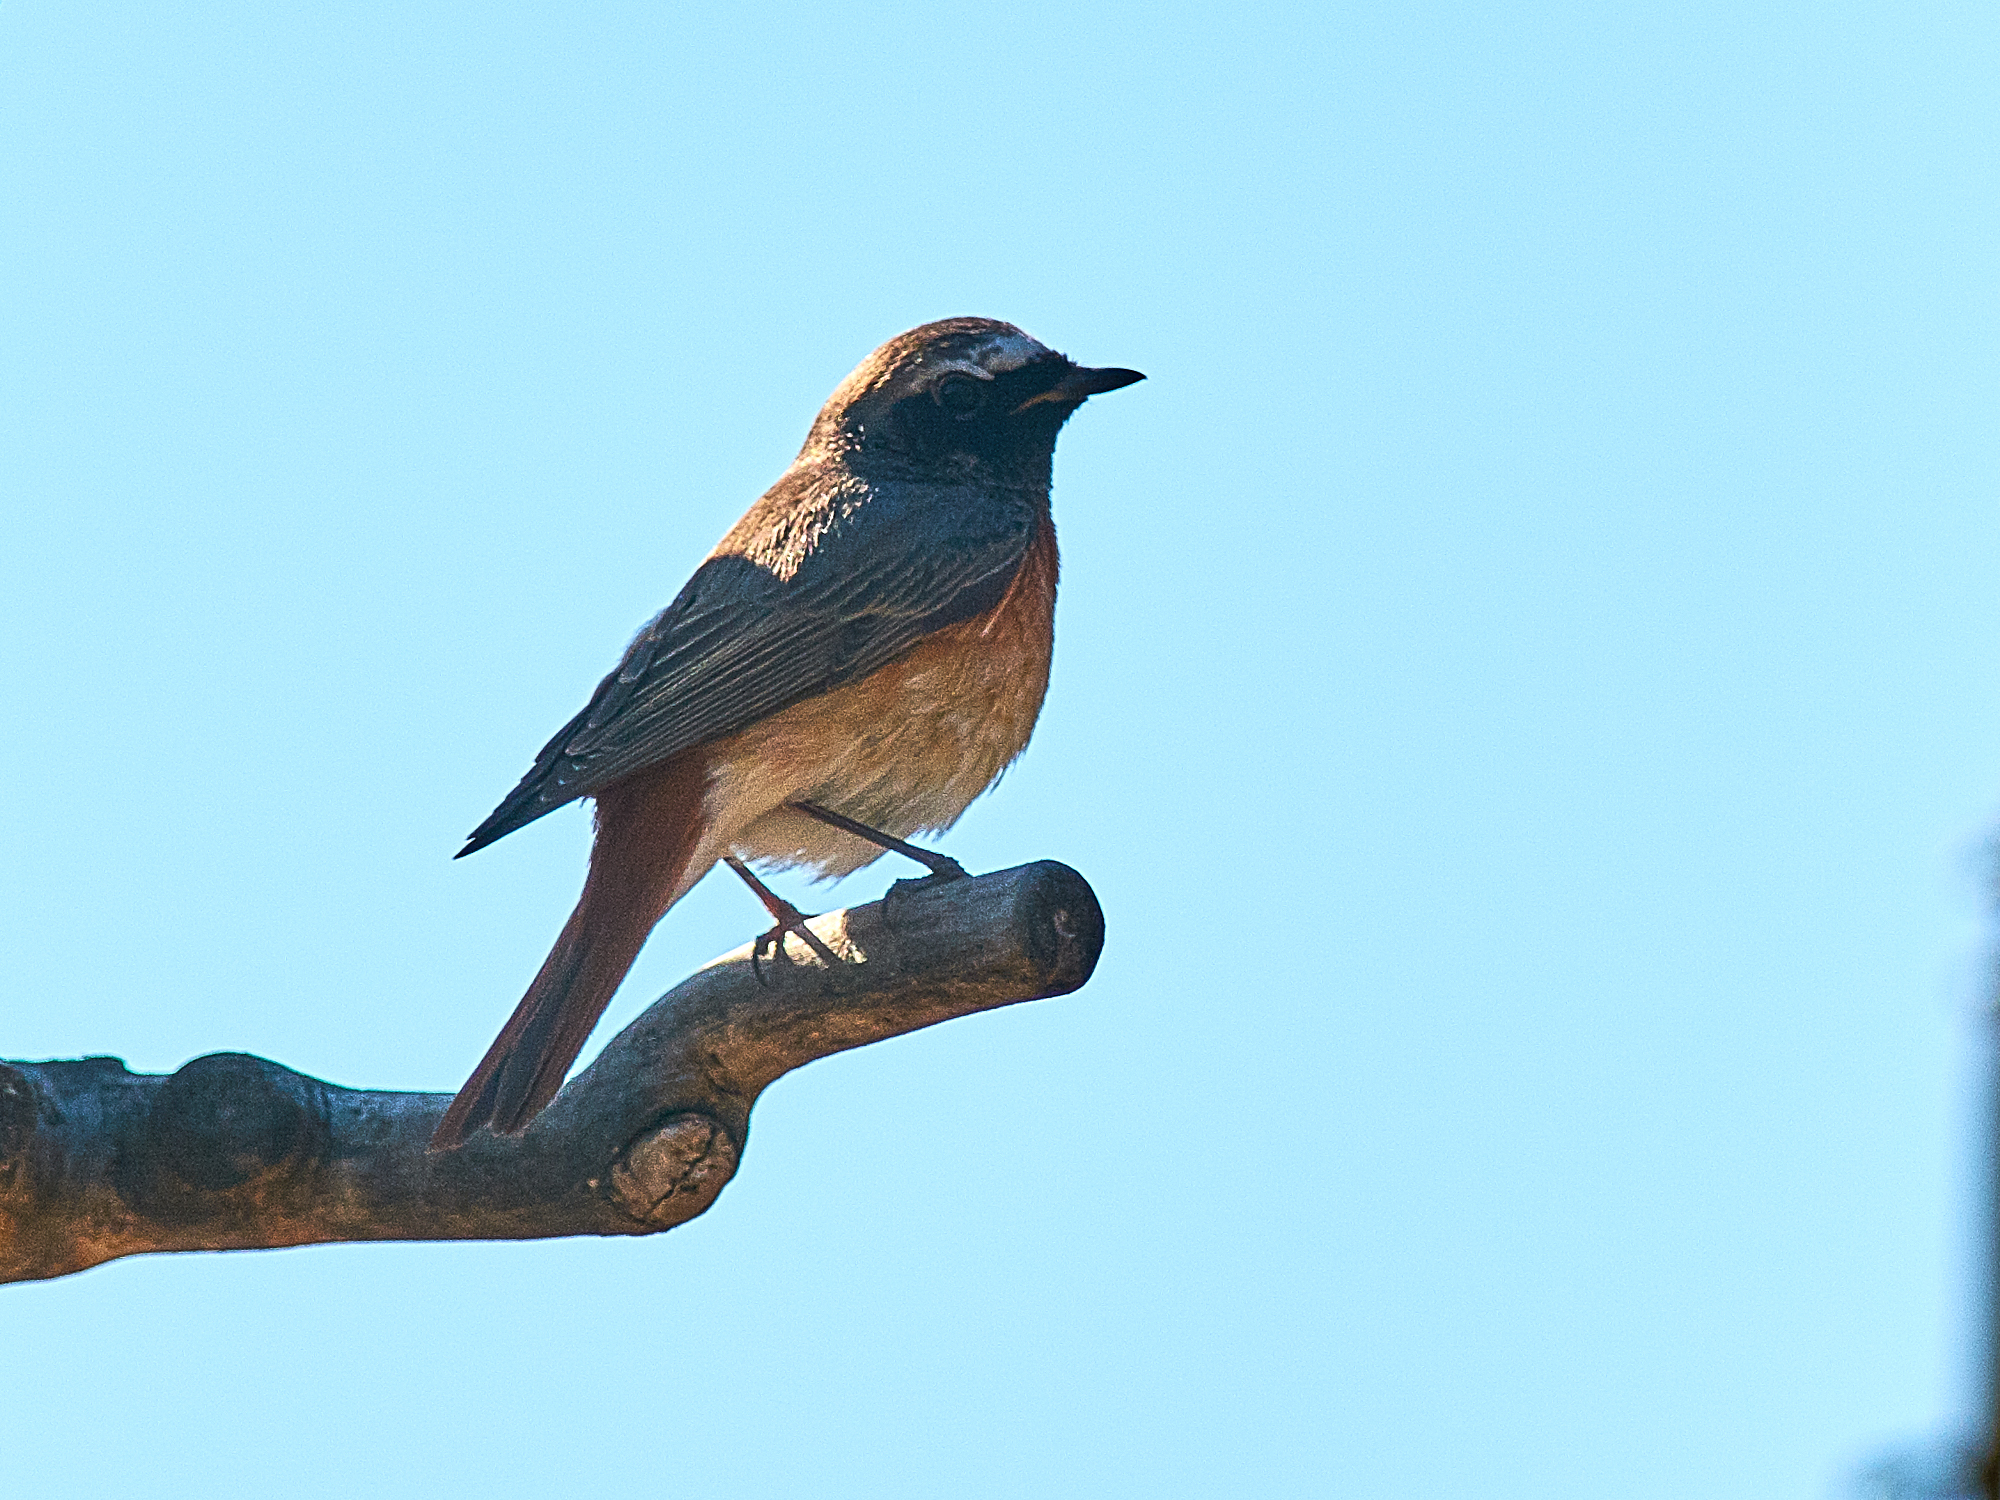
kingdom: Animalia
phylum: Chordata
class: Aves
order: Passeriformes
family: Muscicapidae
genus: Phoenicurus
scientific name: Phoenicurus phoenicurus
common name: Common redstart
